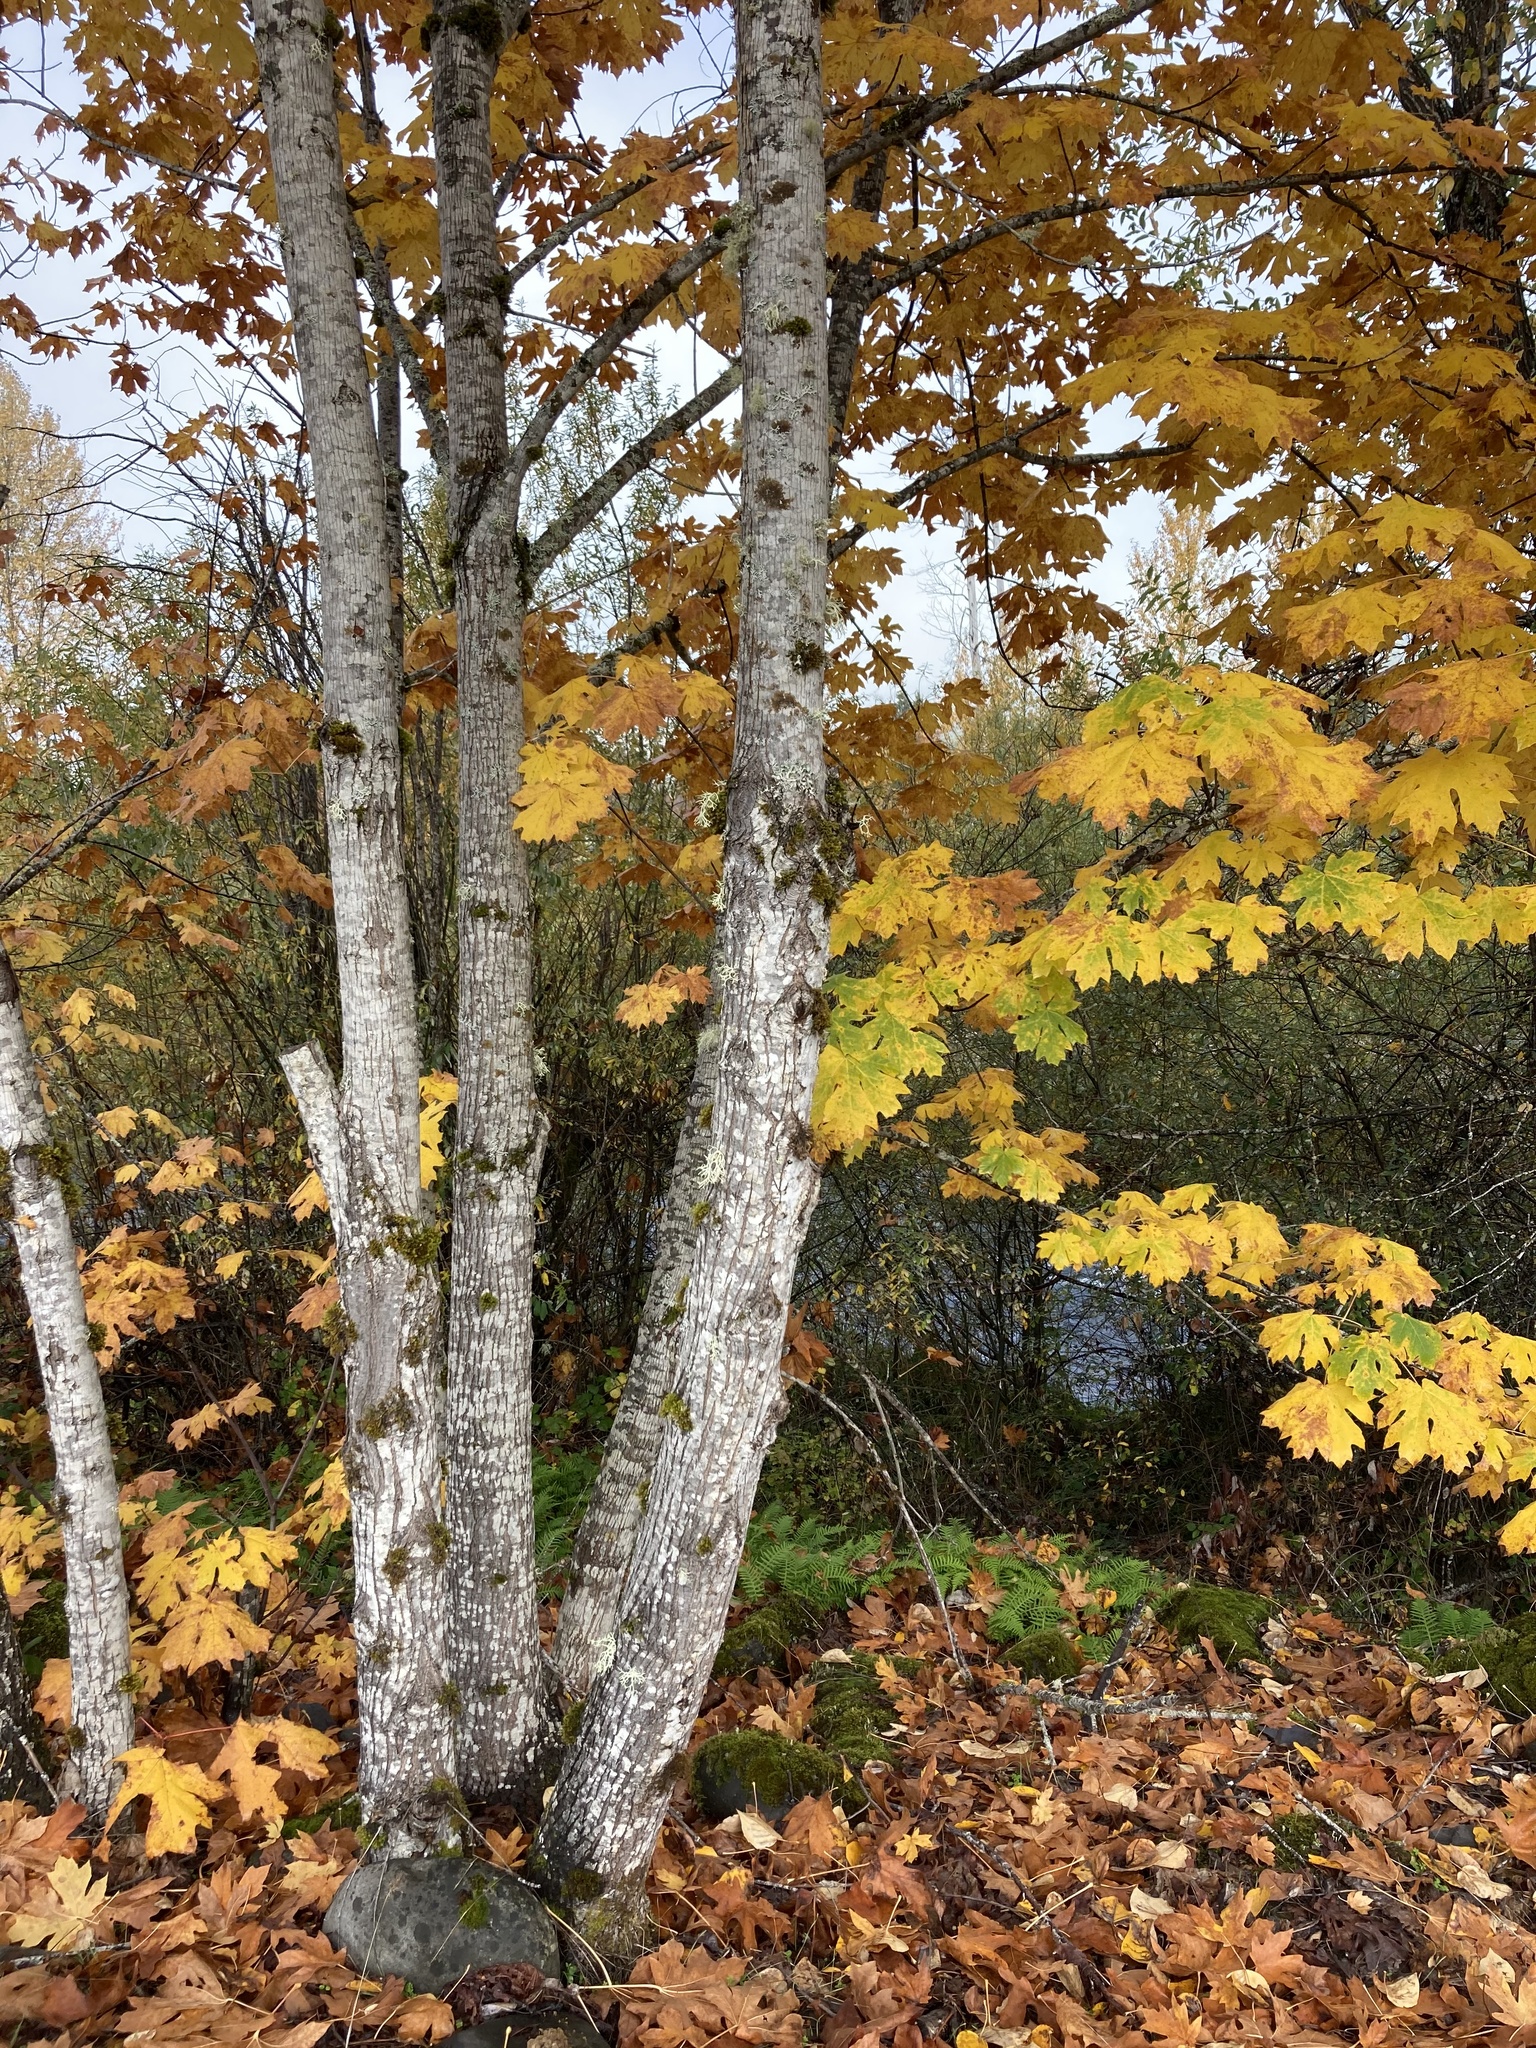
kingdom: Plantae
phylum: Tracheophyta
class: Magnoliopsida
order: Sapindales
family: Sapindaceae
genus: Acer
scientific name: Acer macrophyllum
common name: Oregon maple
